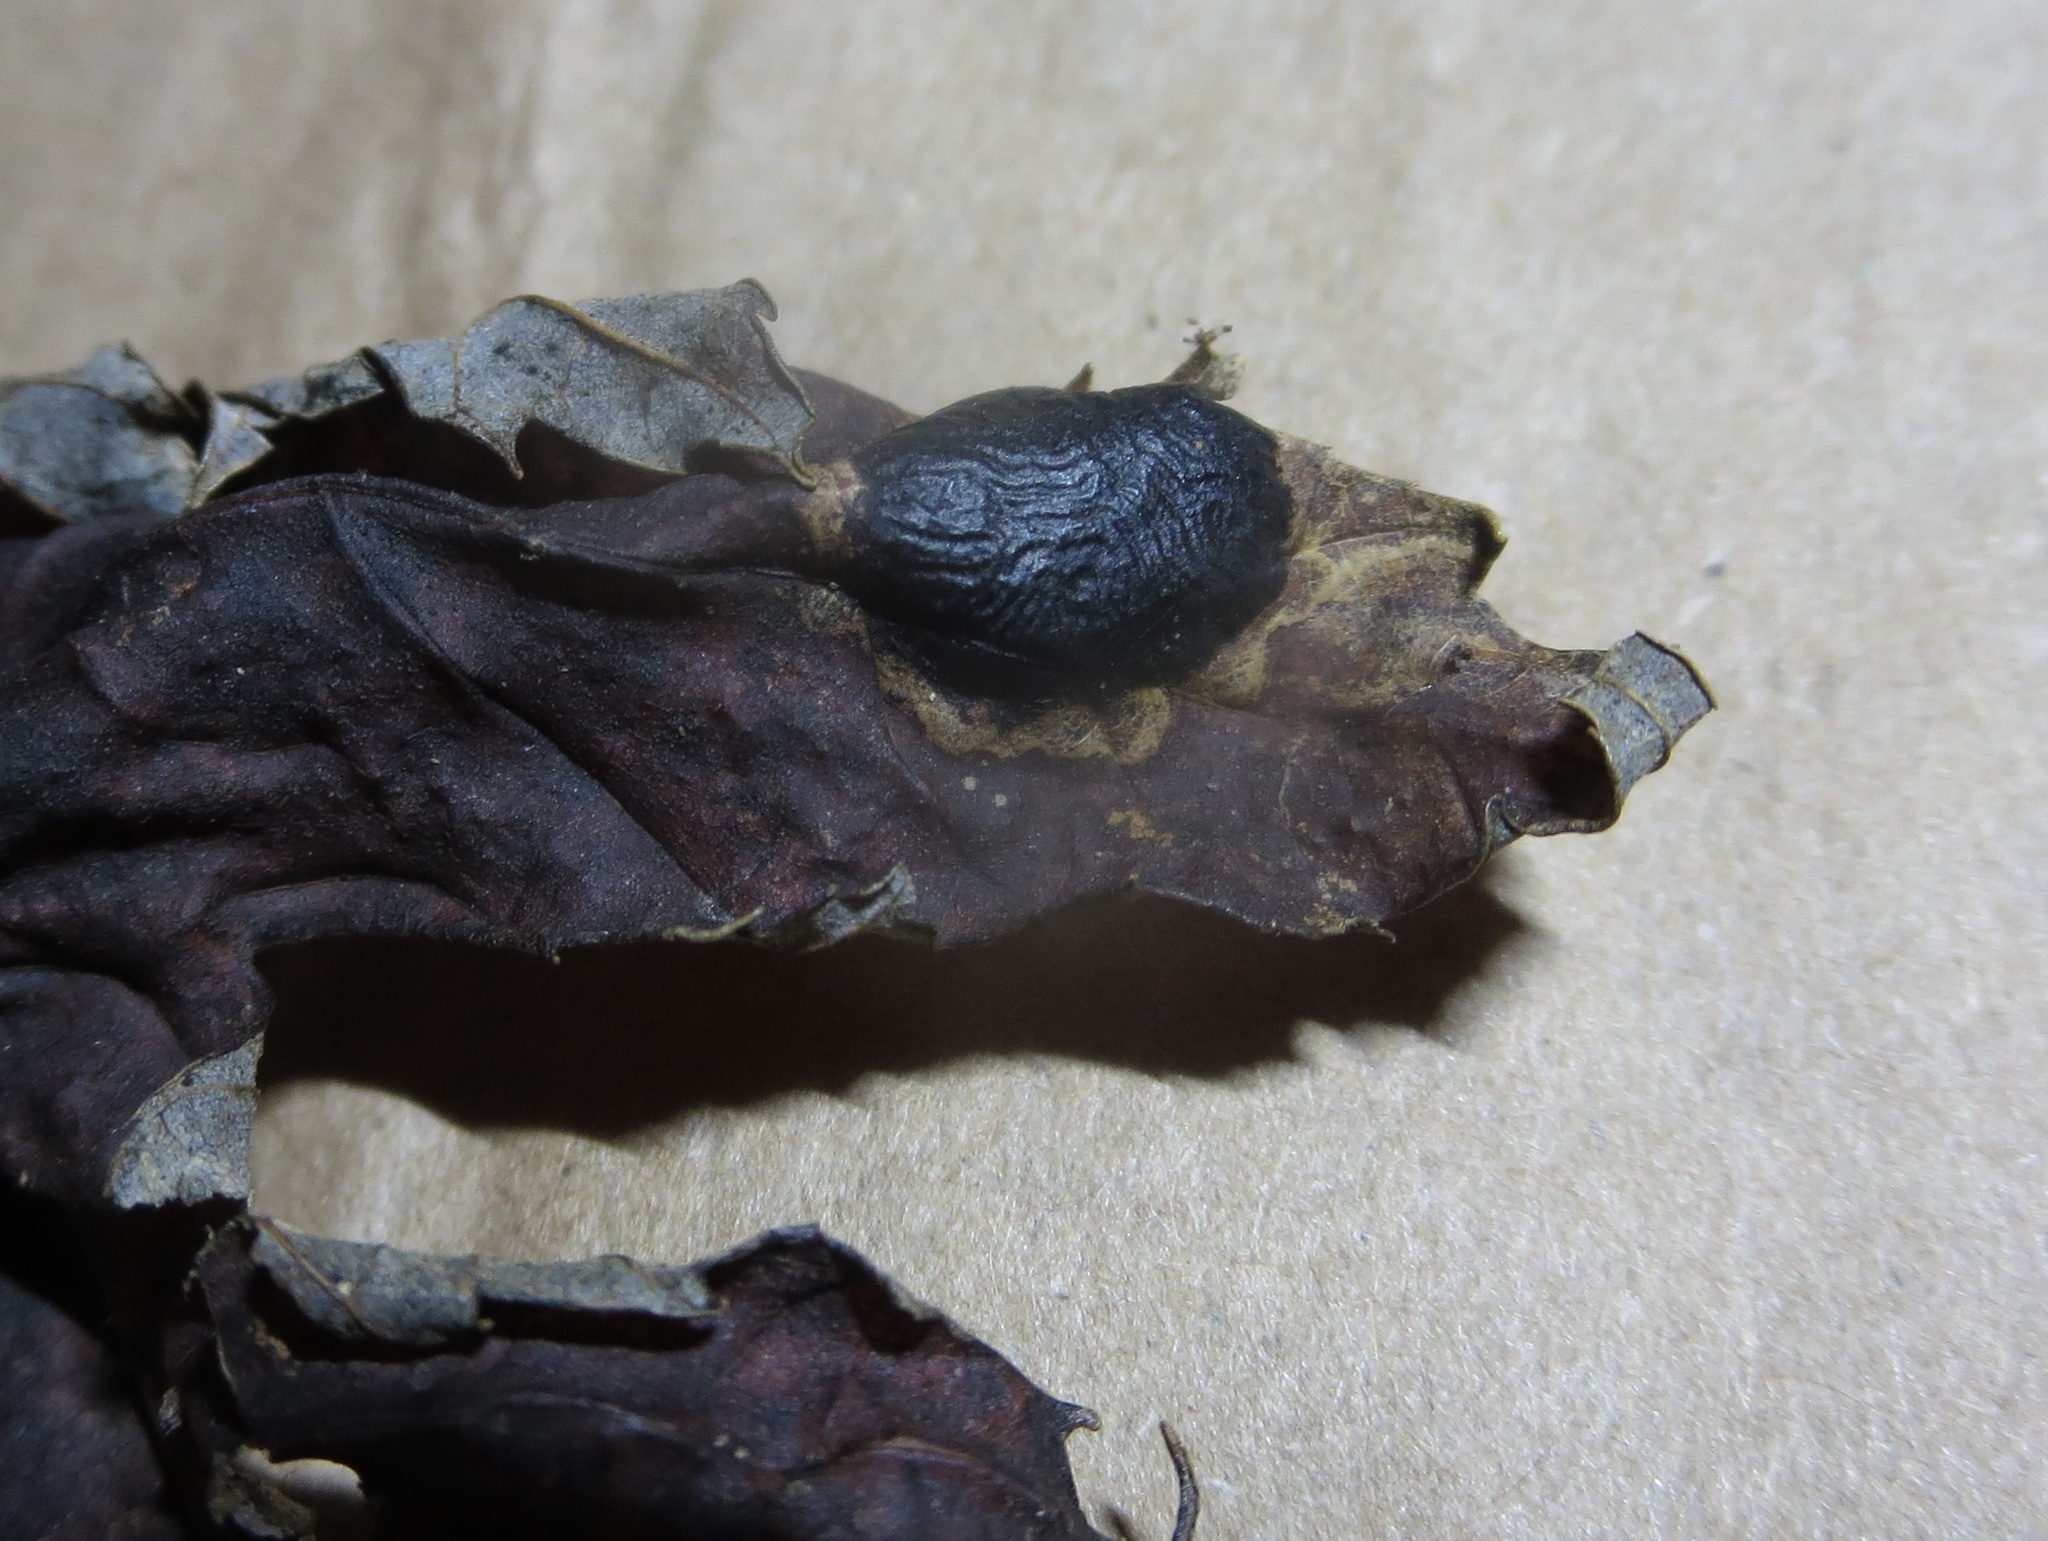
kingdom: Fungi
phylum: Ascomycota
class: Leotiomycetes
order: Rhytismatales
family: Rhytismataceae
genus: Rhytisma
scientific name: Rhytisma americanum
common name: American tar spot
